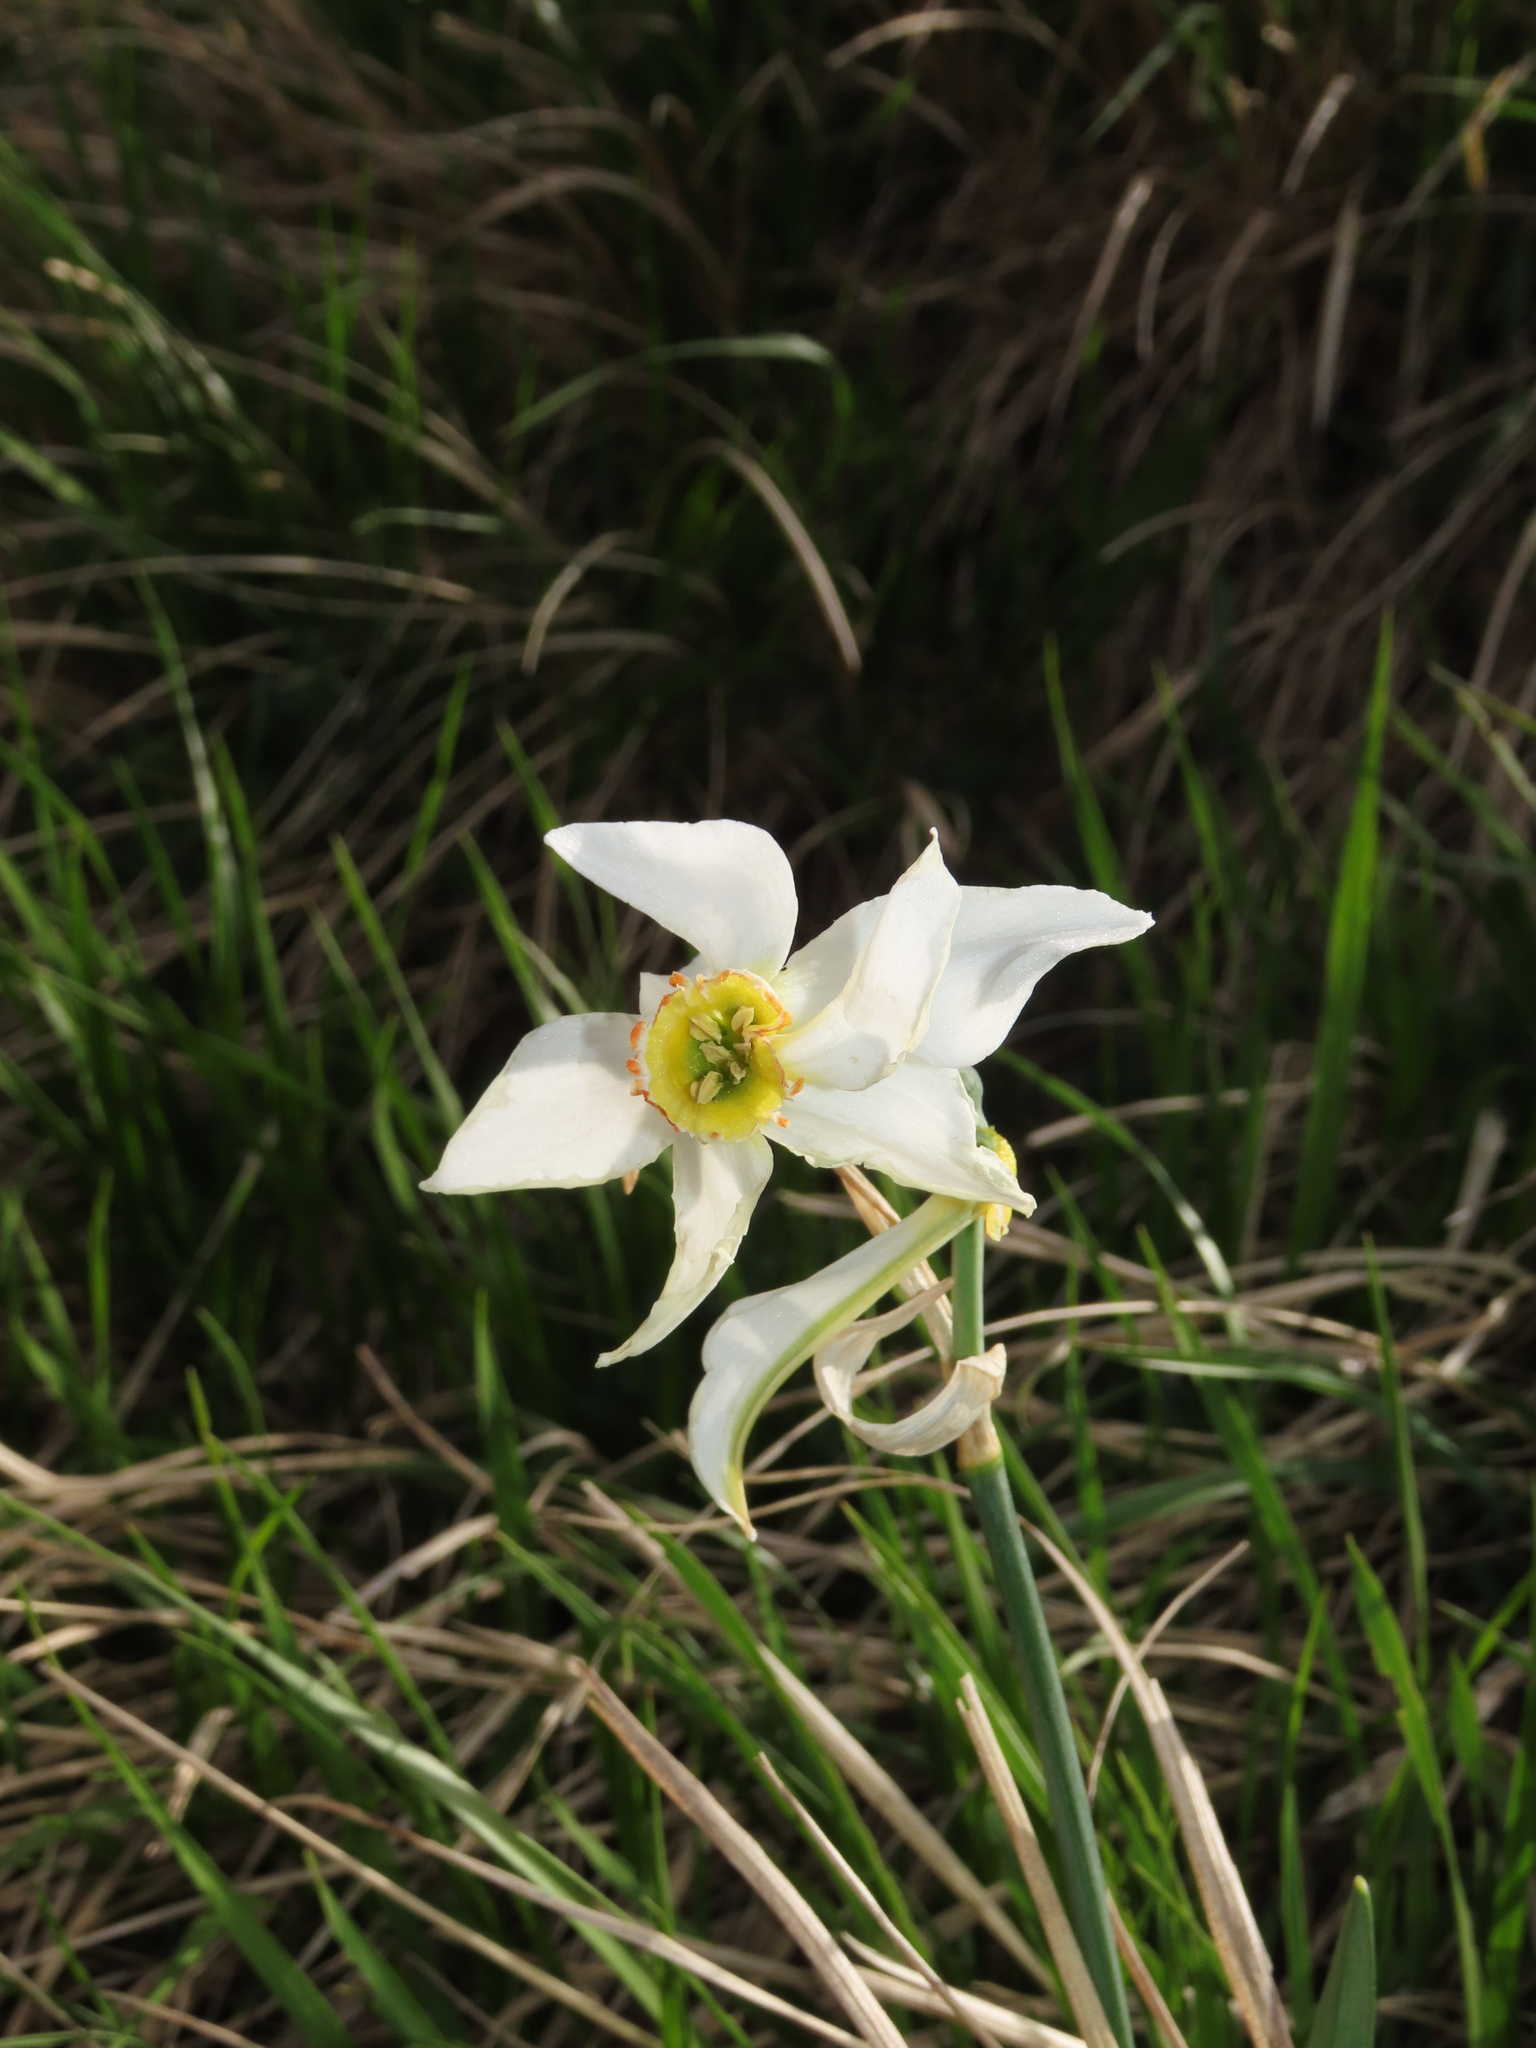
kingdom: Plantae
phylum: Tracheophyta
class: Liliopsida
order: Asparagales
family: Amaryllidaceae
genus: Narcissus
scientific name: Narcissus poeticus
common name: Pheasant's-eye daffodil
